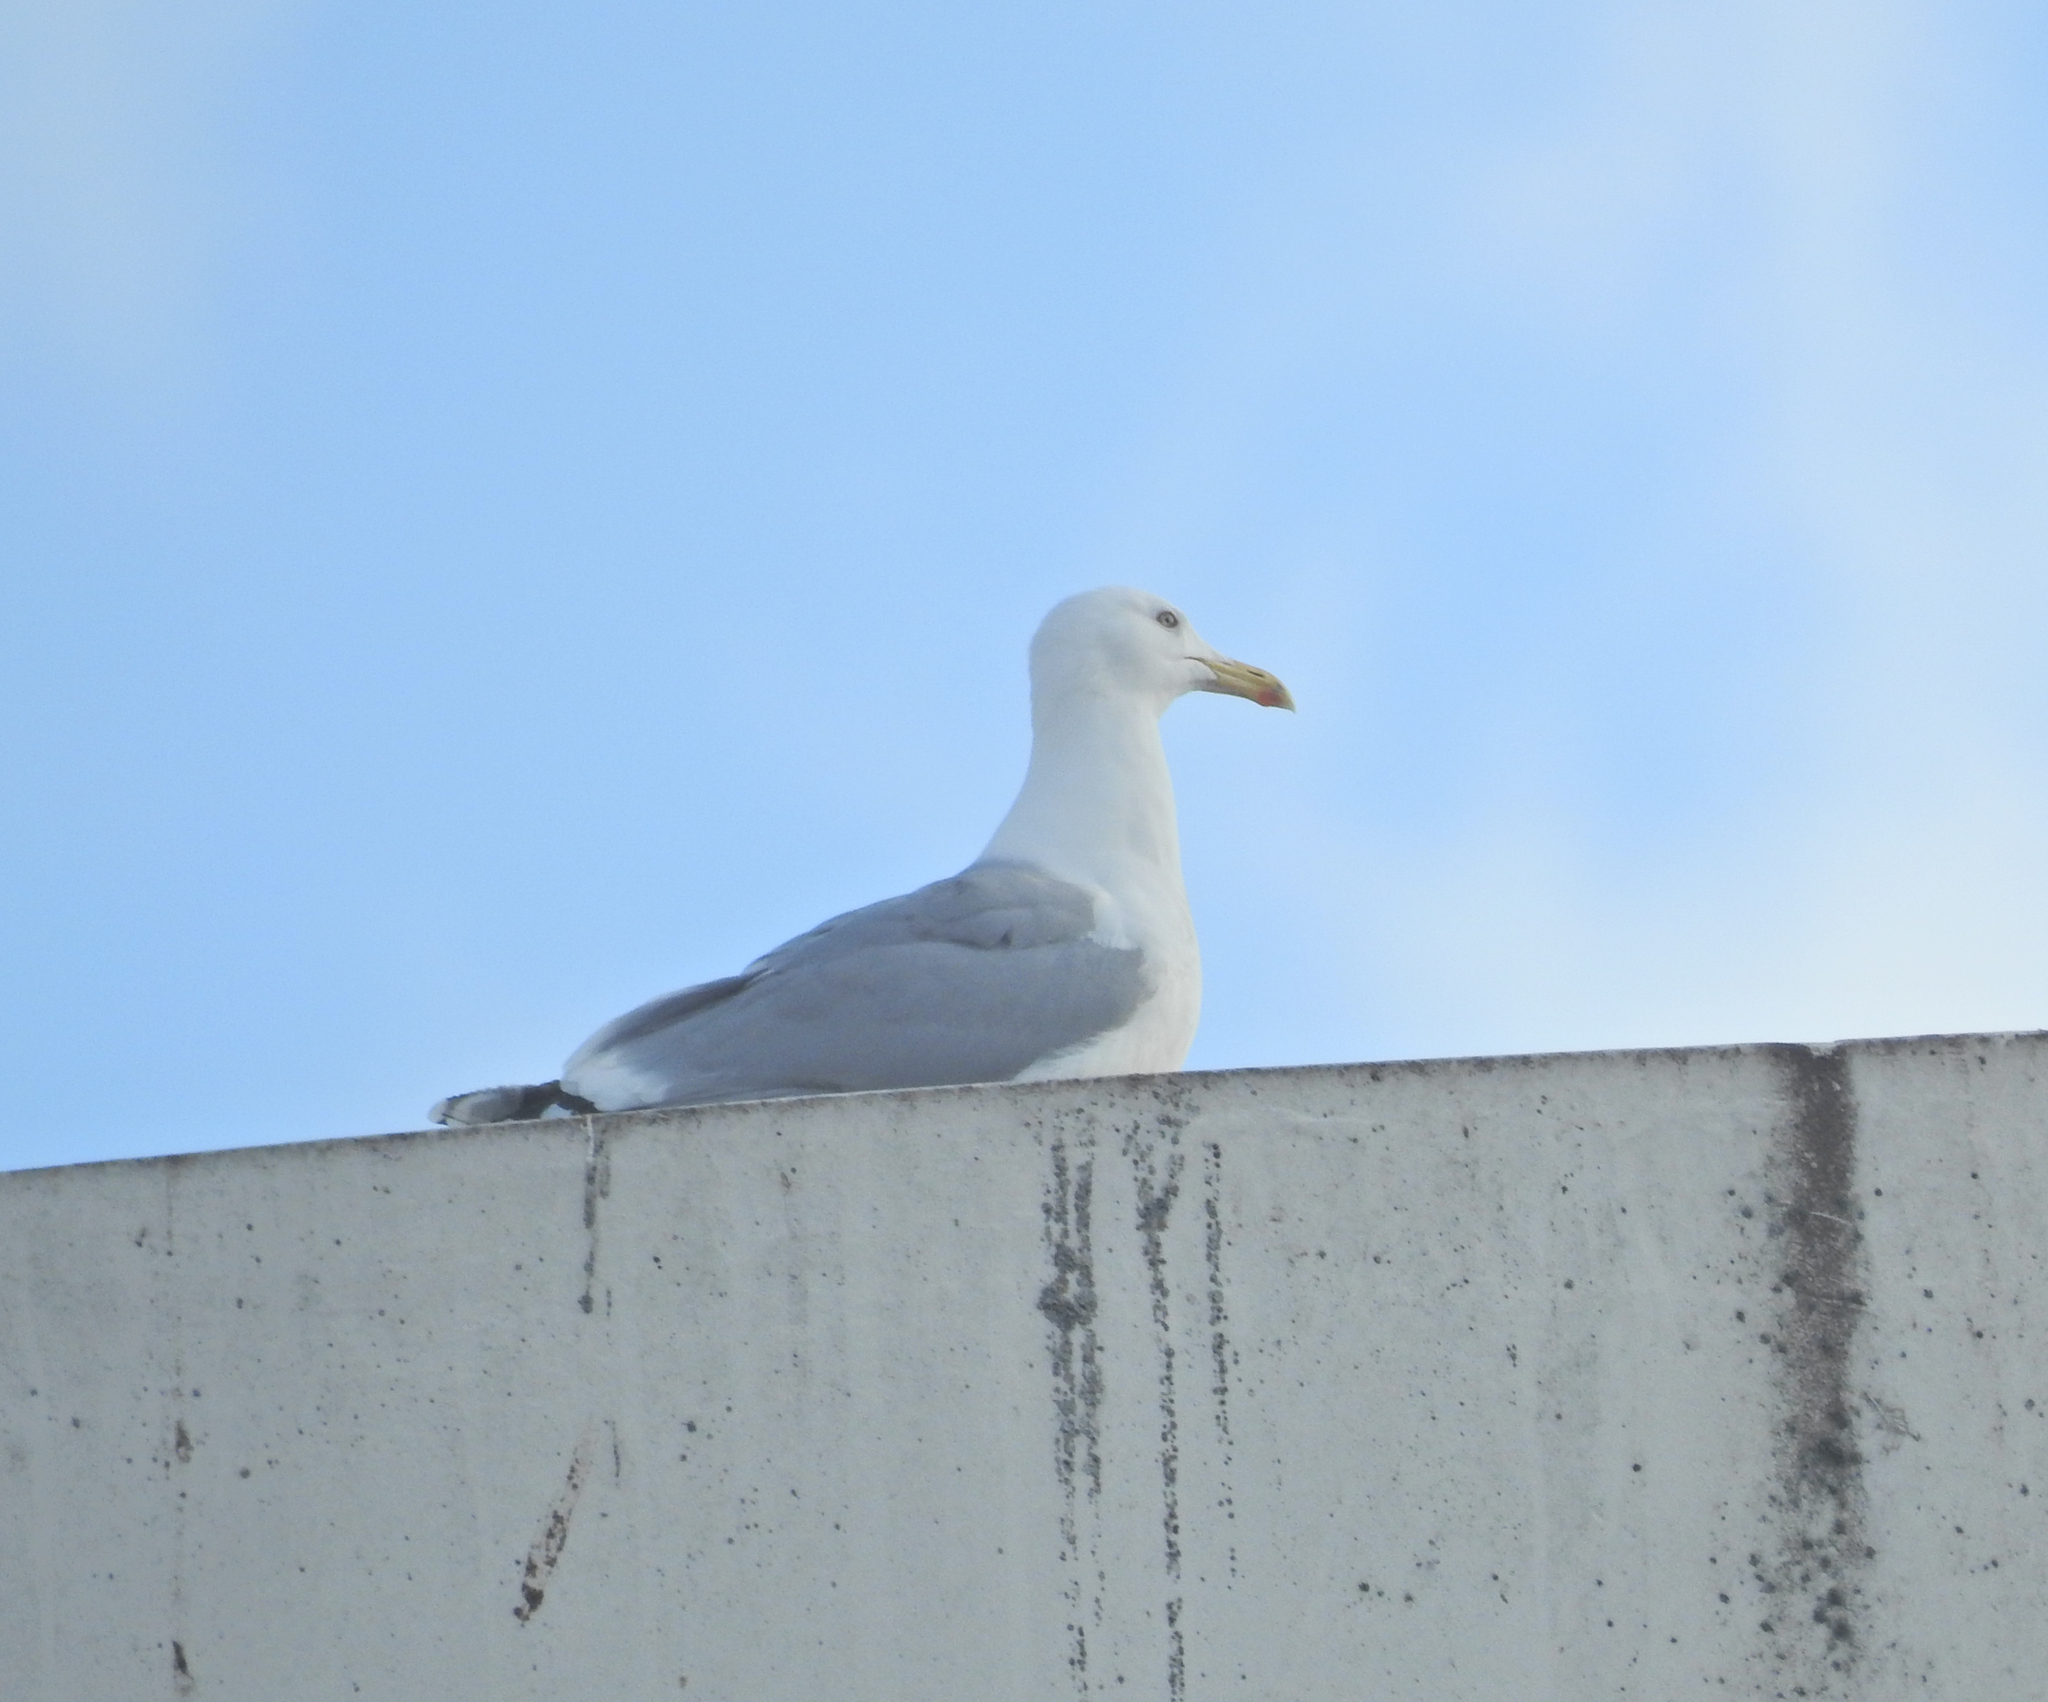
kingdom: Animalia
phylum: Chordata
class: Aves
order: Charadriiformes
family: Laridae
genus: Larus
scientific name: Larus argentatus
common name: Herring gull
